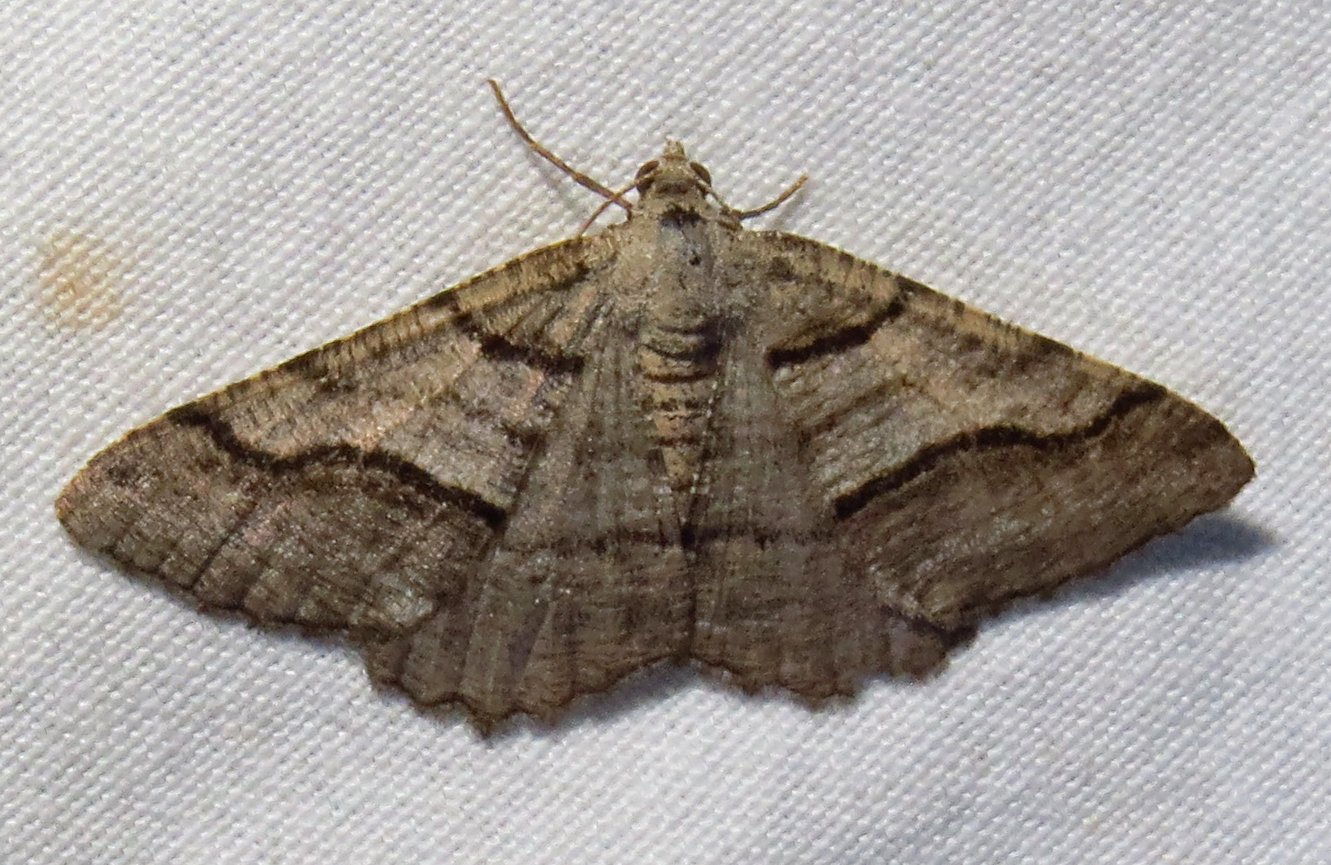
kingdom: Animalia
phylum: Arthropoda
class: Insecta
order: Lepidoptera
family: Geometridae
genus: Digrammia
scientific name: Digrammia continuata
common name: Curve-lined angle
